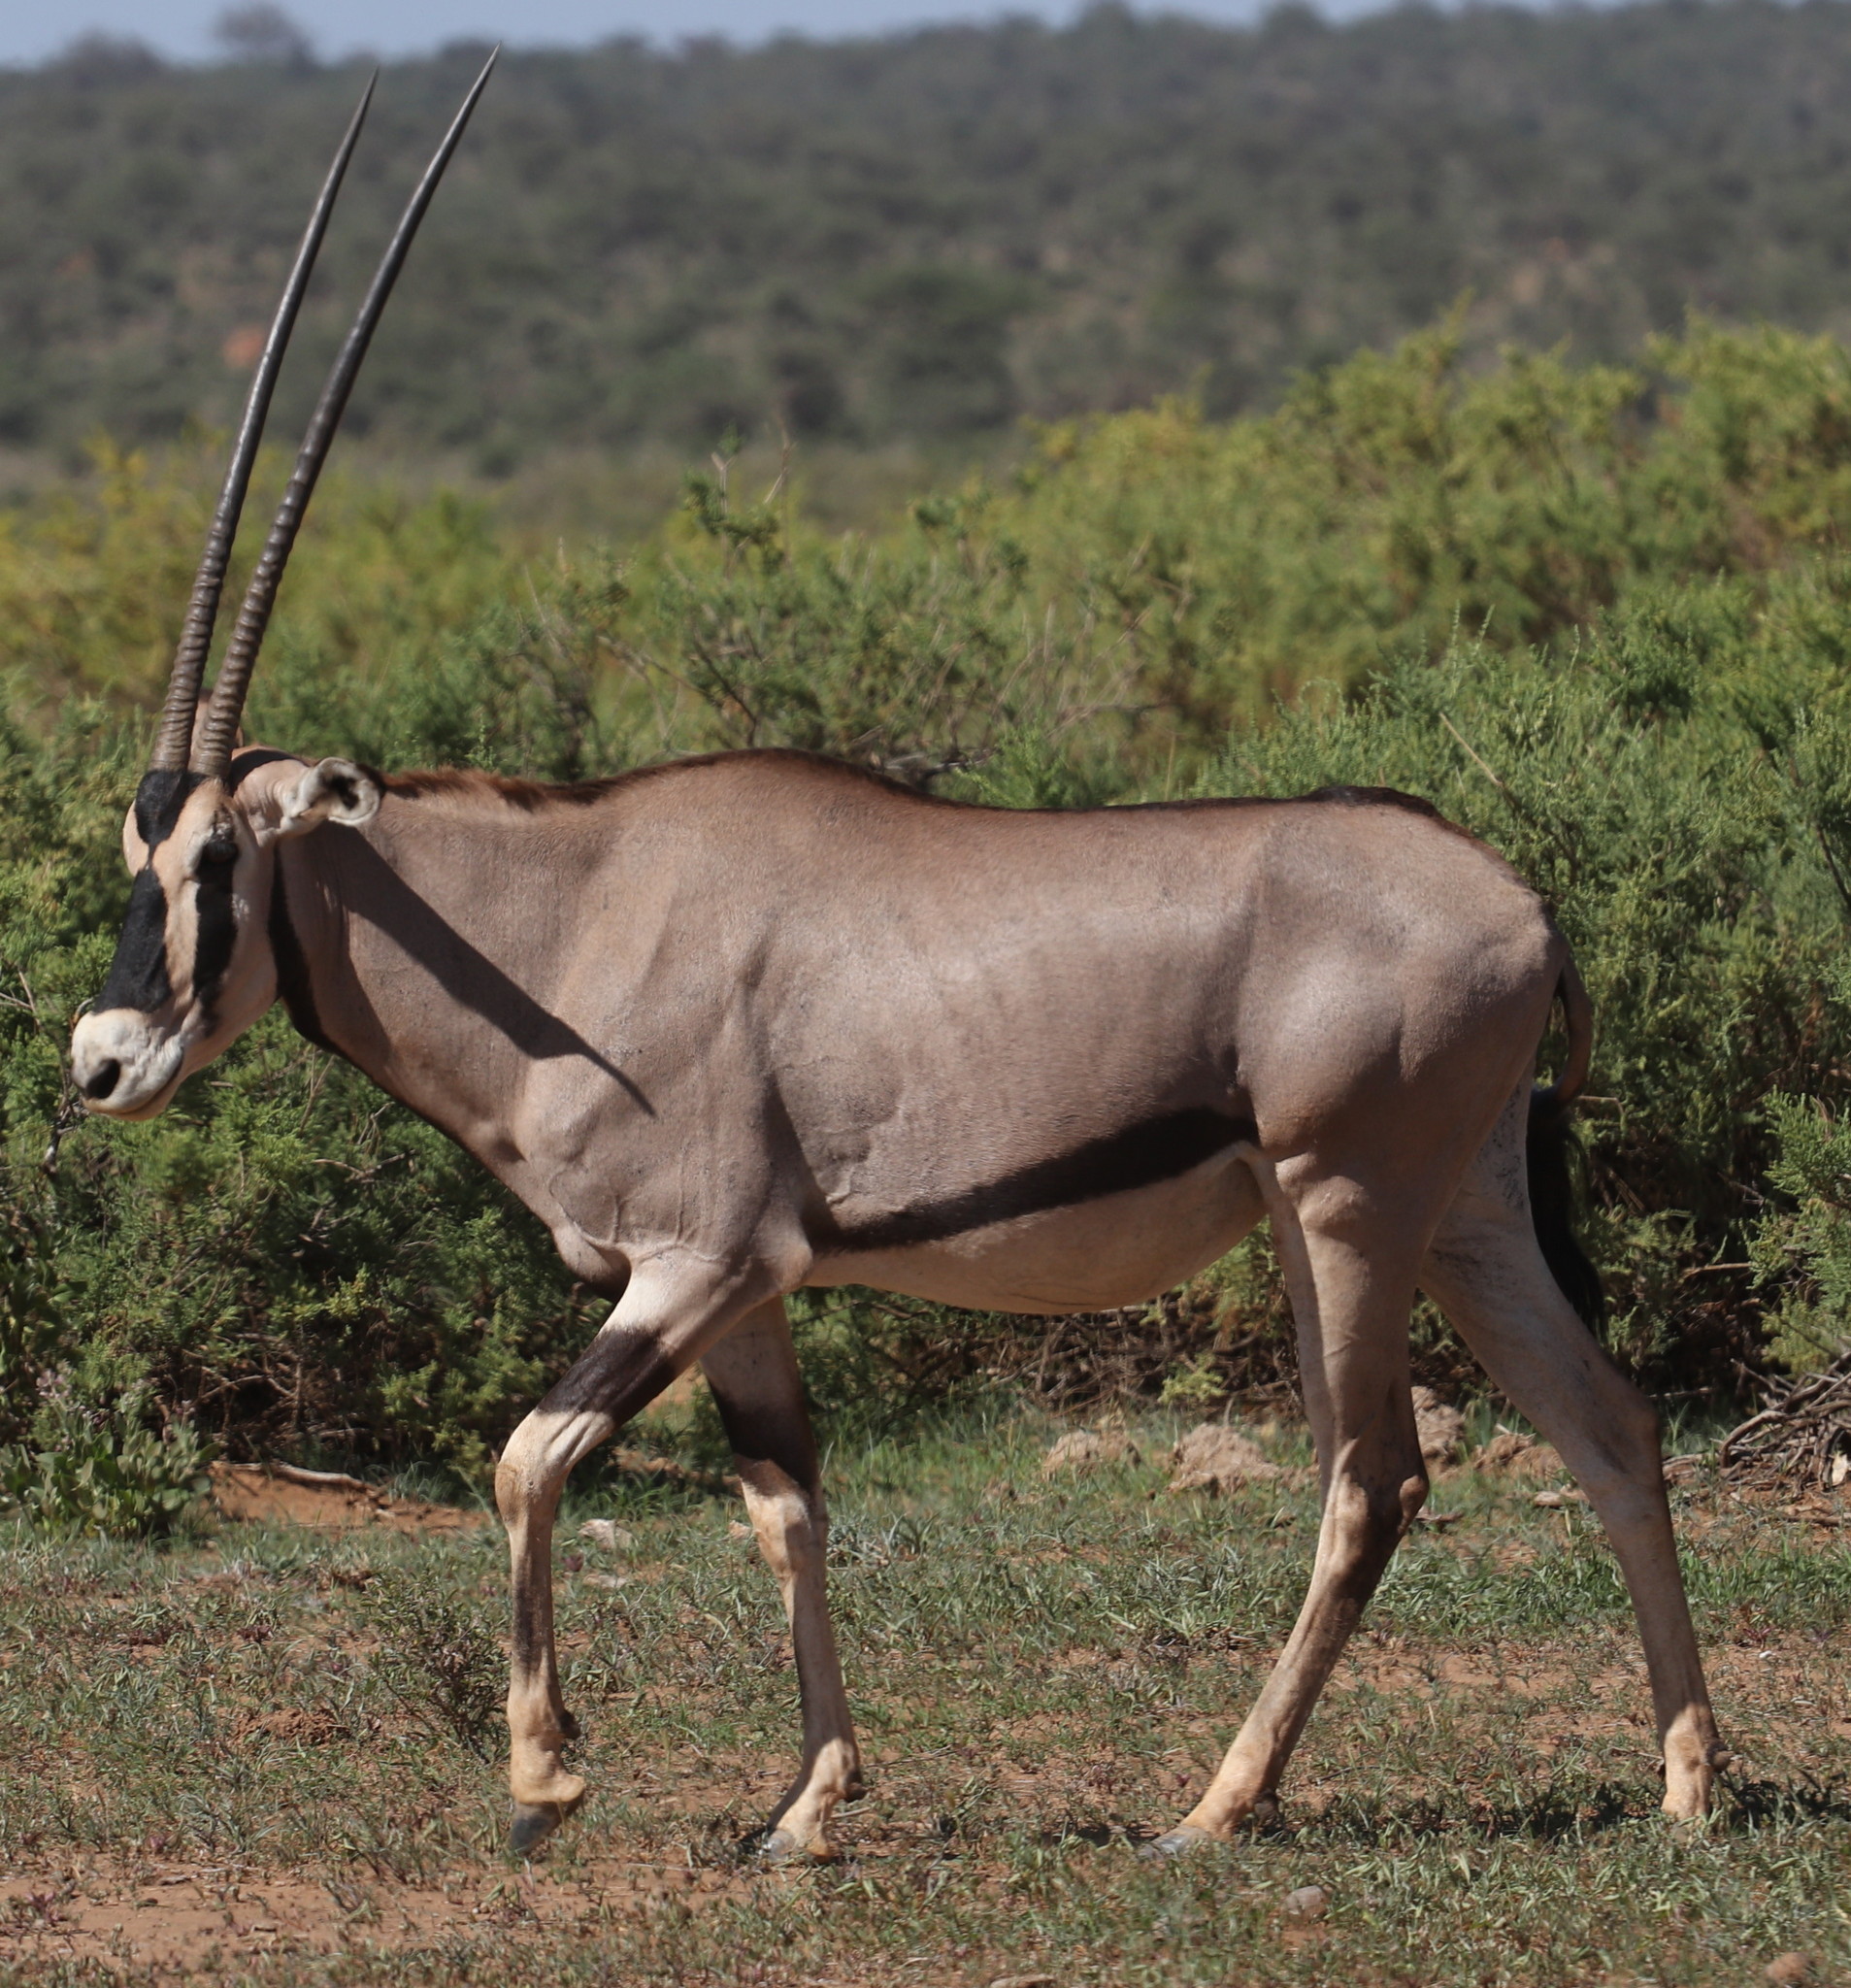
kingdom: Animalia
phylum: Chordata
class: Mammalia
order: Artiodactyla
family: Bovidae
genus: Oryx
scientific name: Oryx beisa
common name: Beisa
